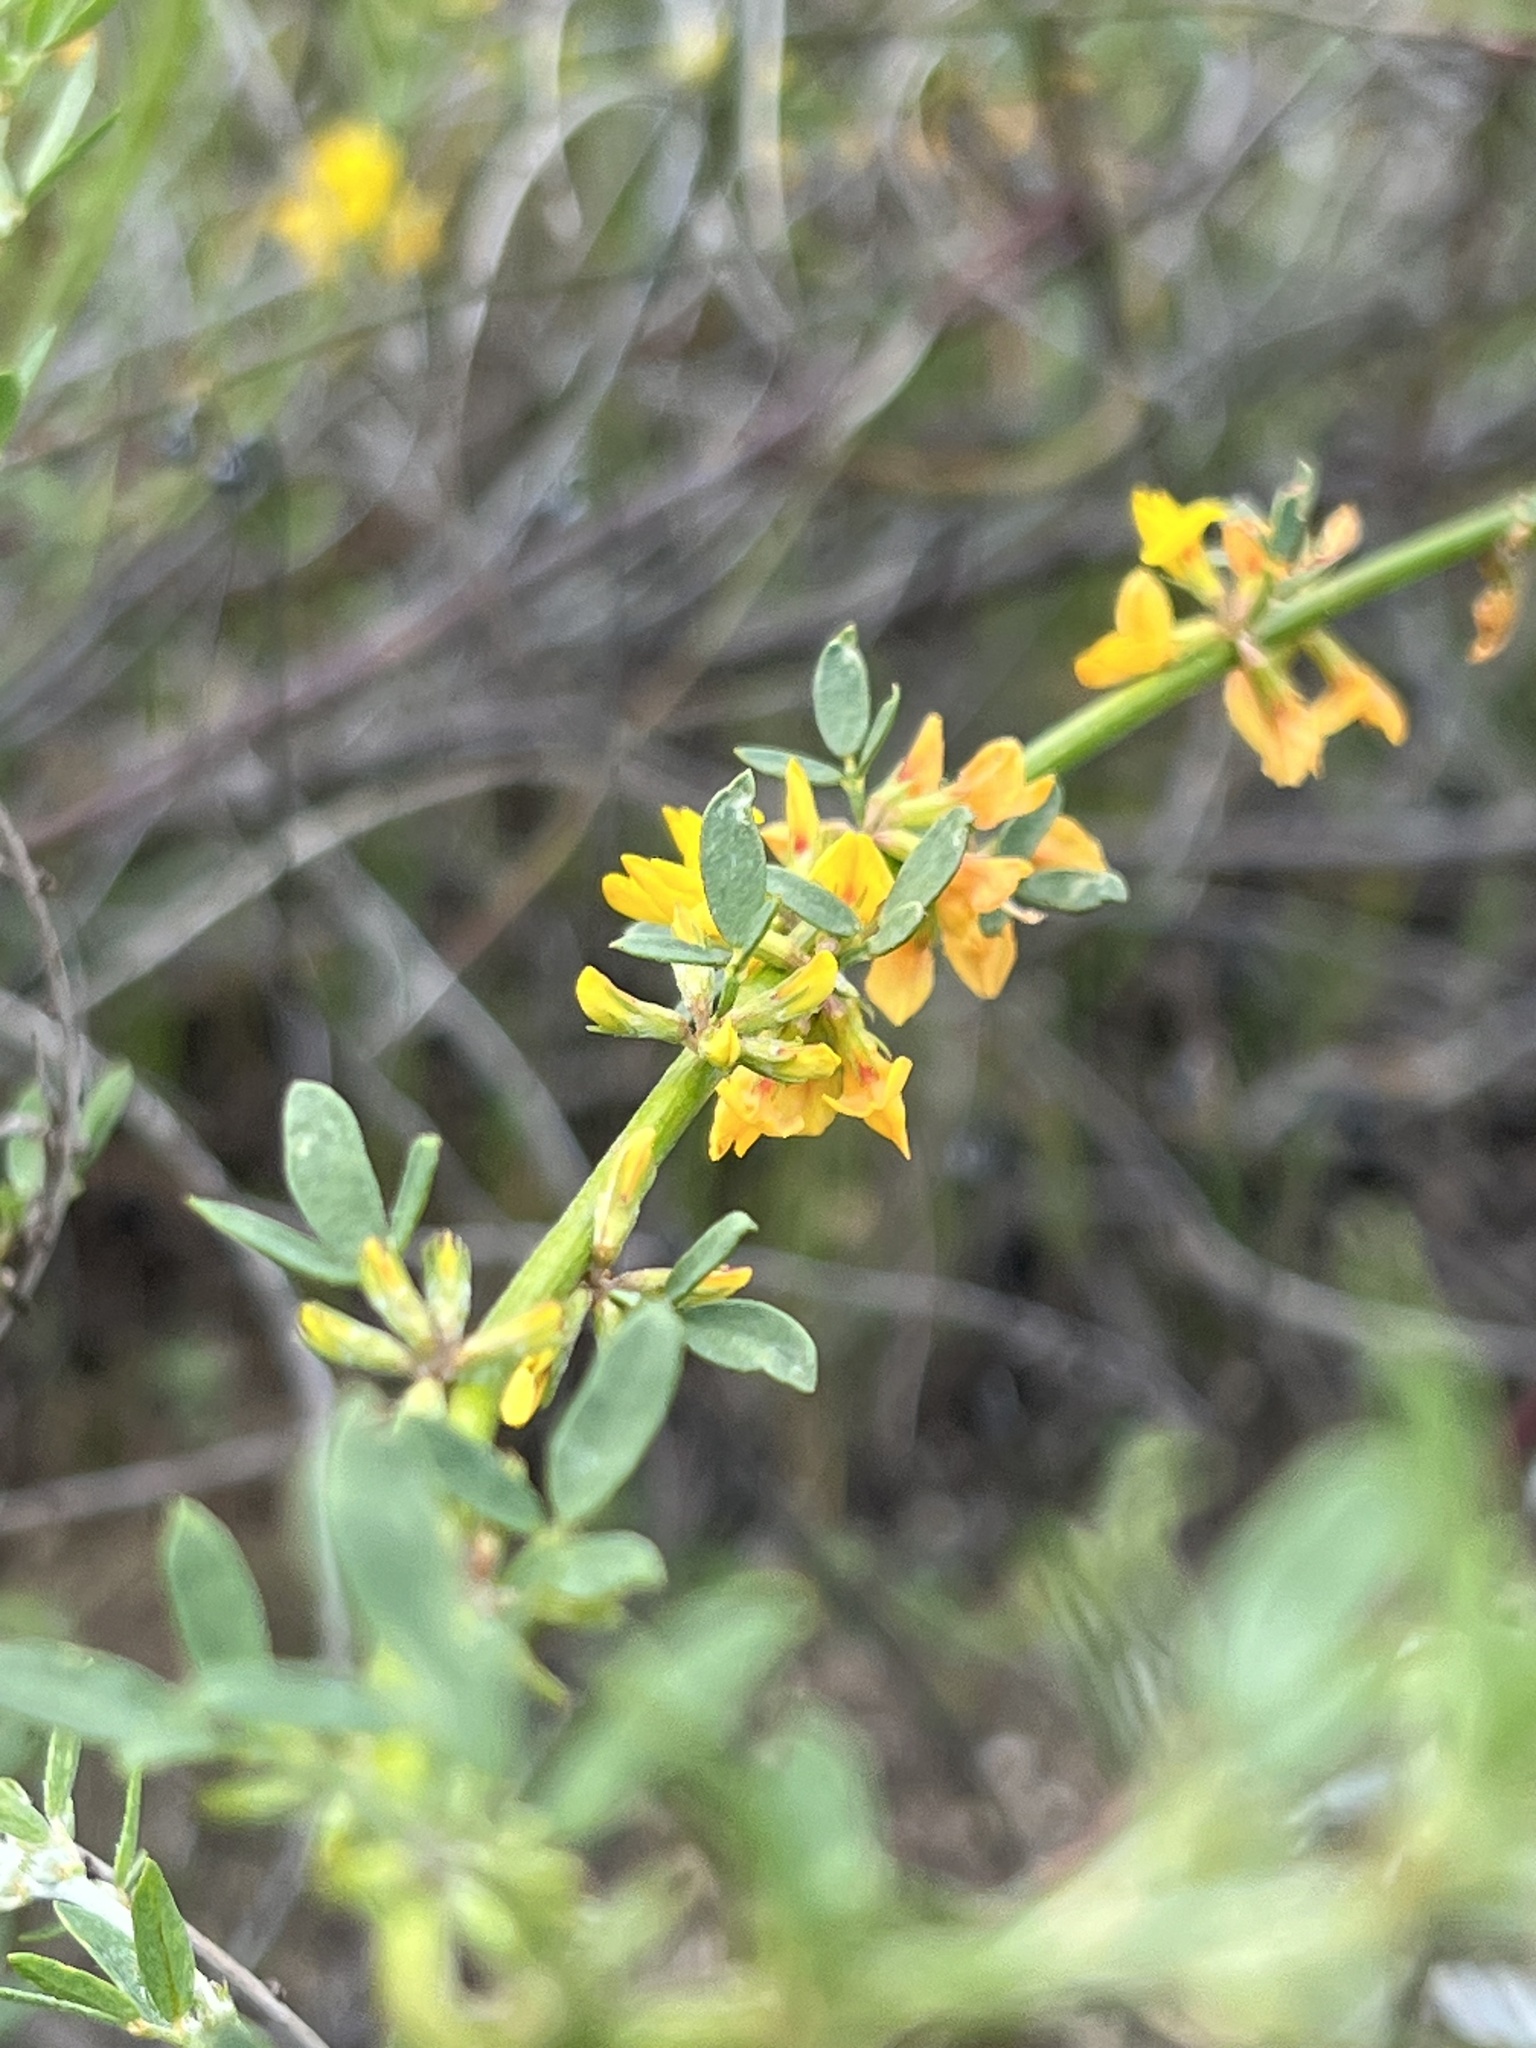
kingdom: Plantae
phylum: Tracheophyta
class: Magnoliopsida
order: Fabales
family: Fabaceae
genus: Acmispon
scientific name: Acmispon glaber
